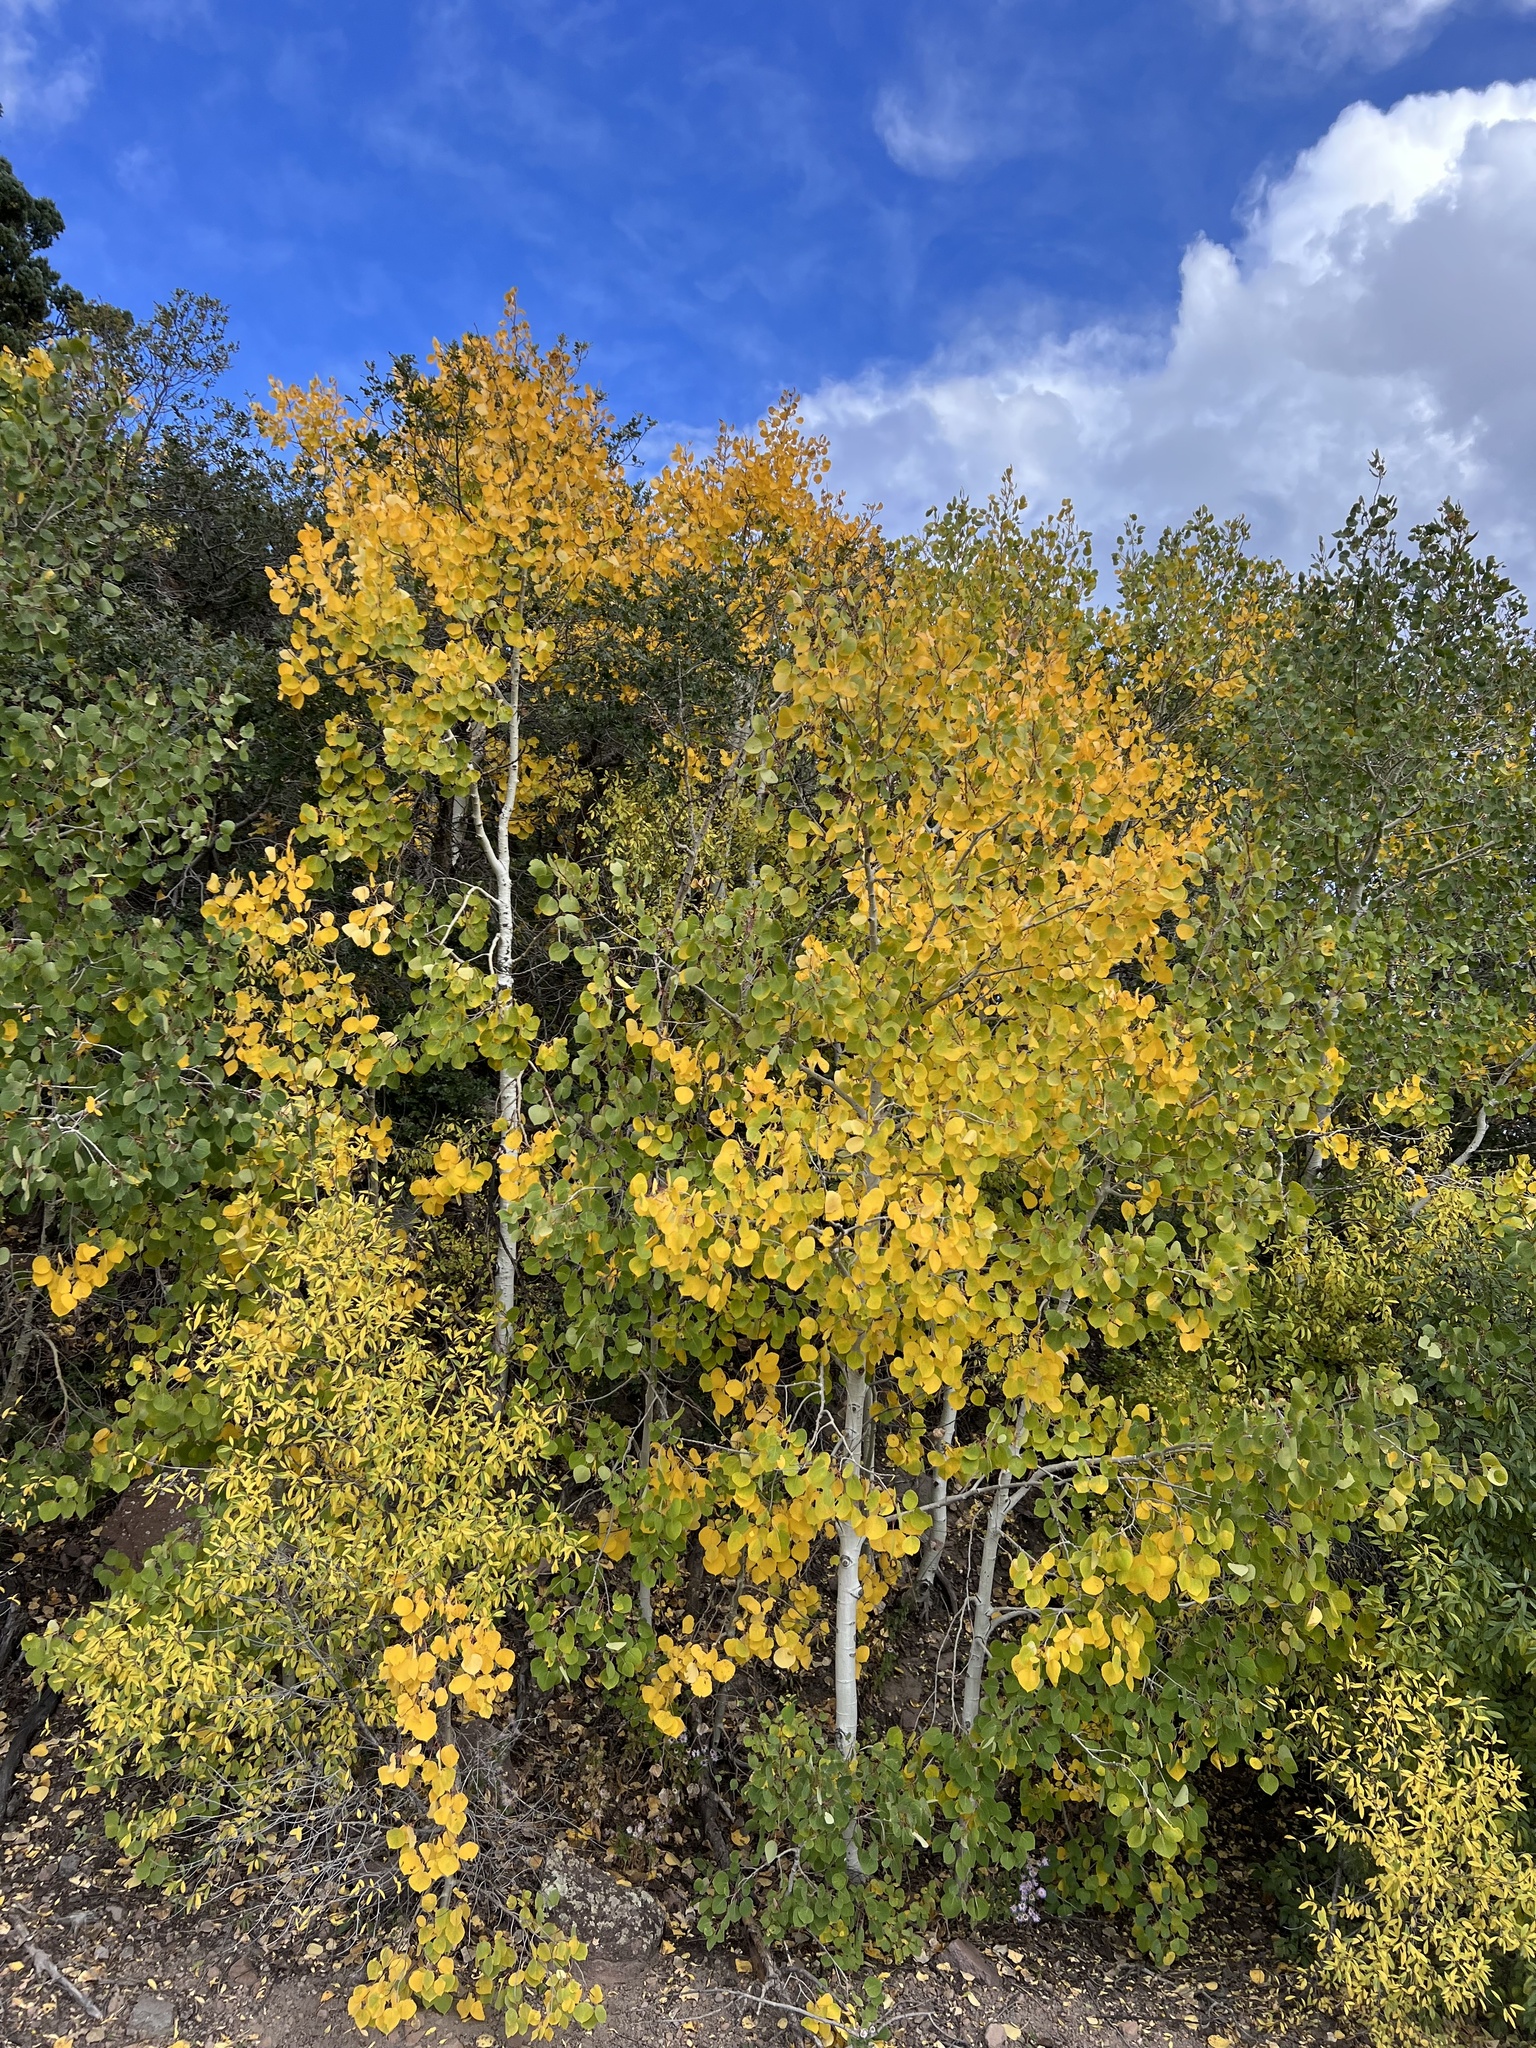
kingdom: Plantae
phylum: Tracheophyta
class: Magnoliopsida
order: Malpighiales
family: Salicaceae
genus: Populus
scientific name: Populus tremuloides
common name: Quaking aspen
